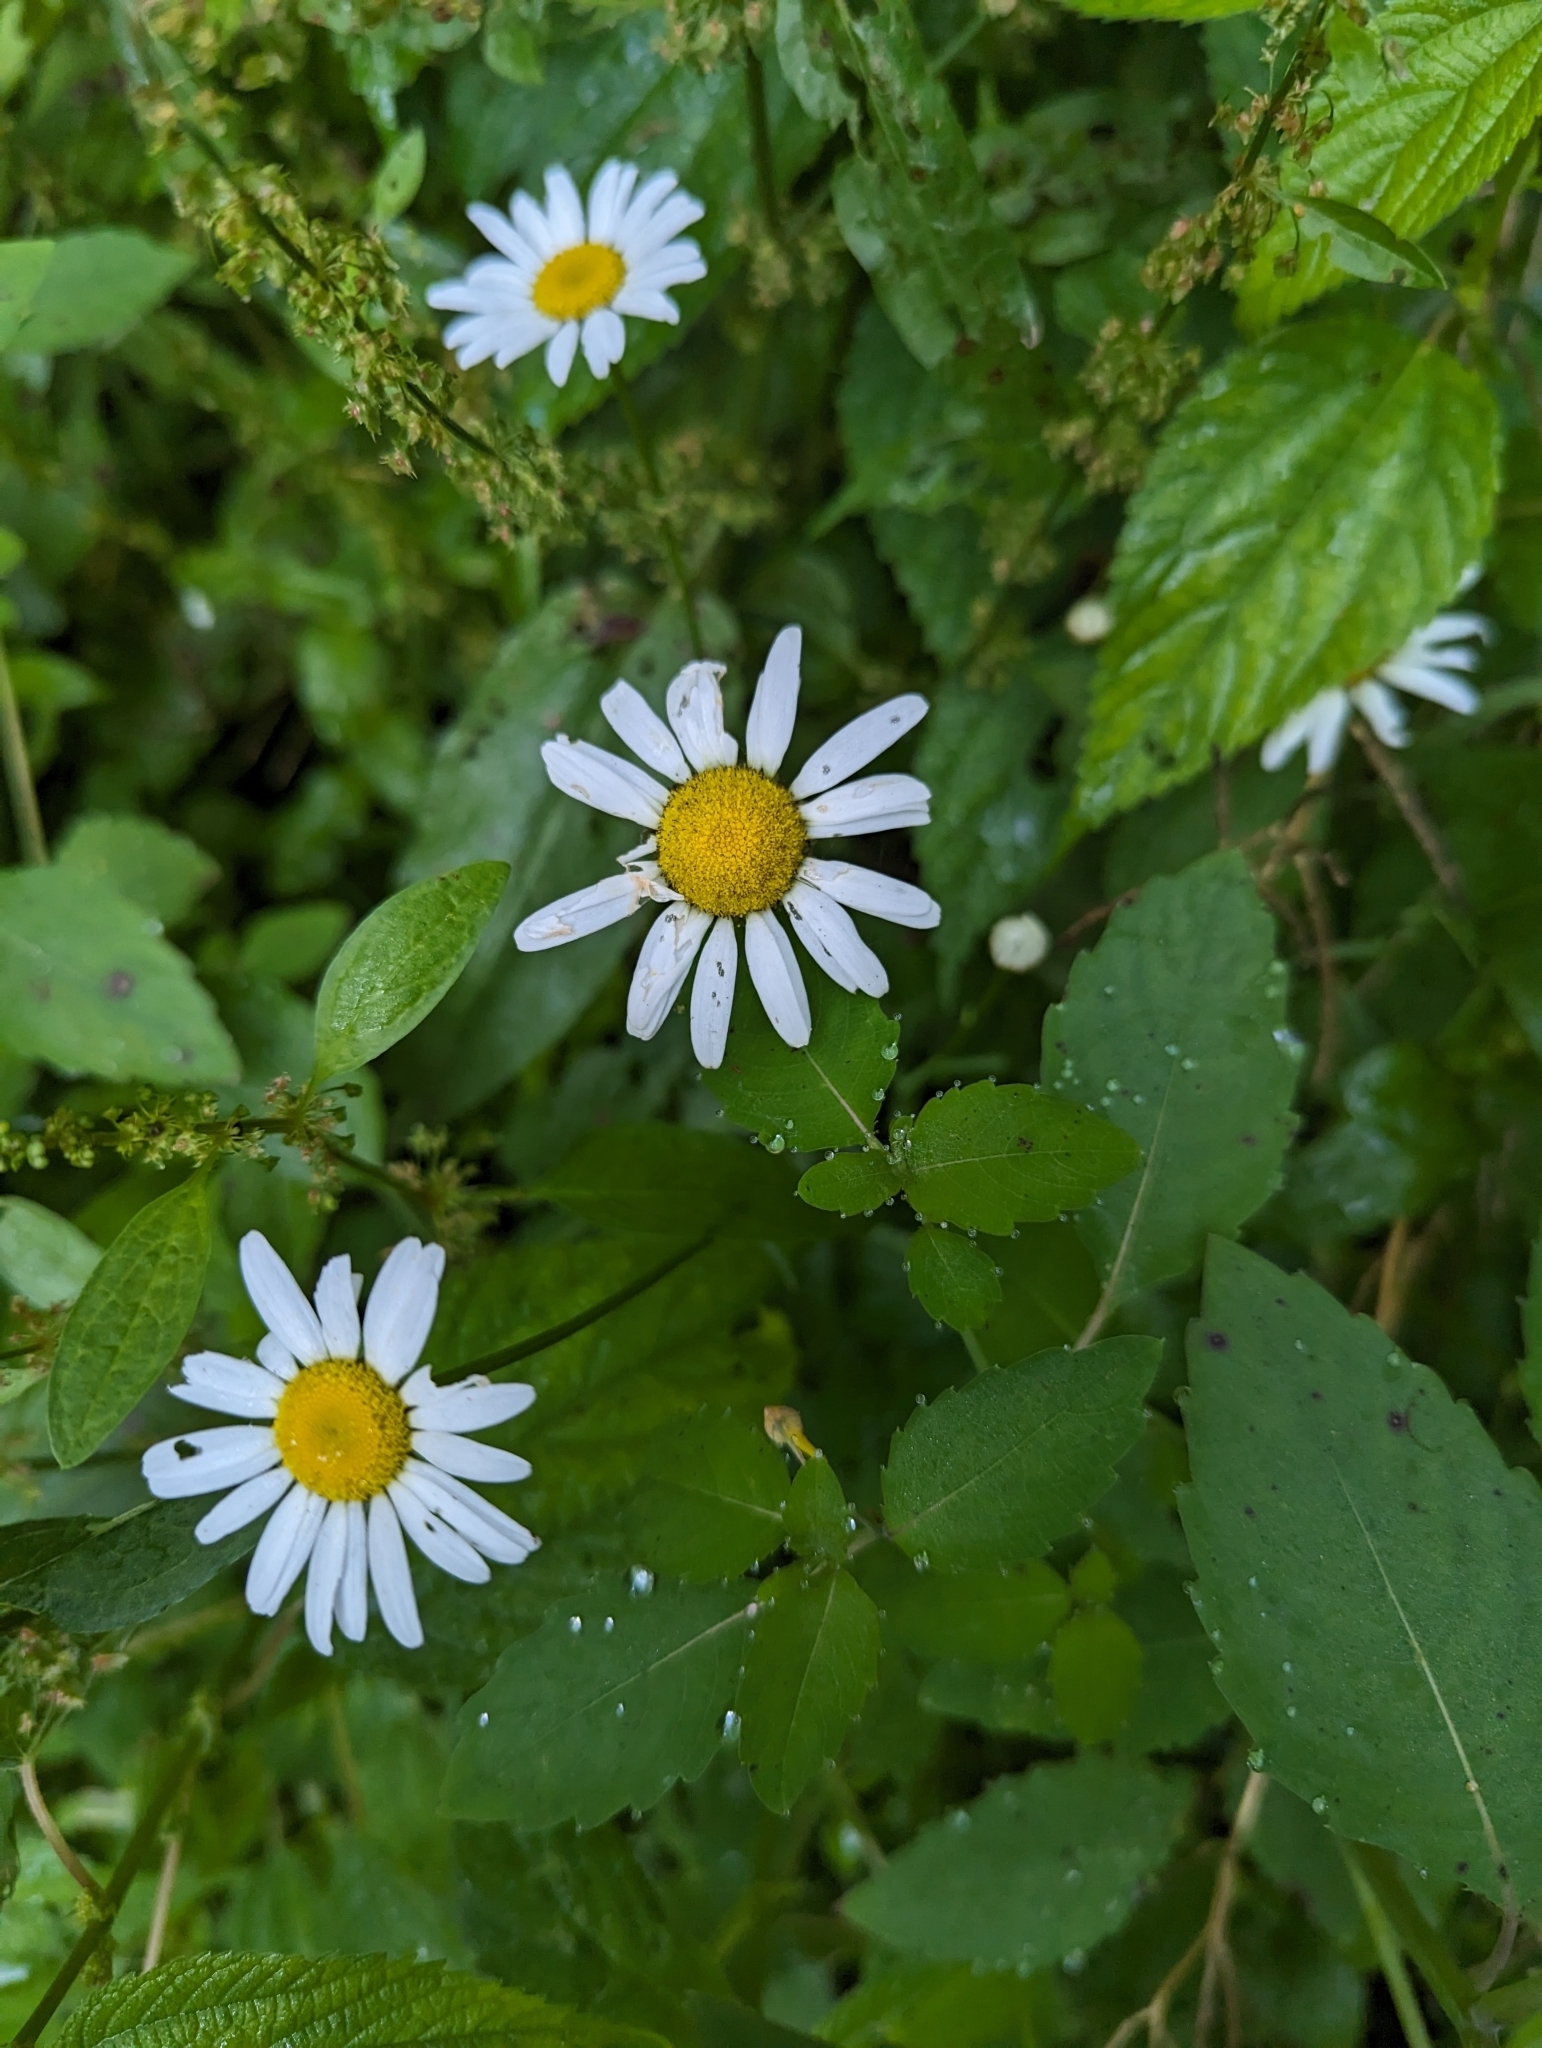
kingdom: Plantae
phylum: Tracheophyta
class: Magnoliopsida
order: Asterales
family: Asteraceae
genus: Leucanthemum
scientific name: Leucanthemum vulgare
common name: Oxeye daisy
